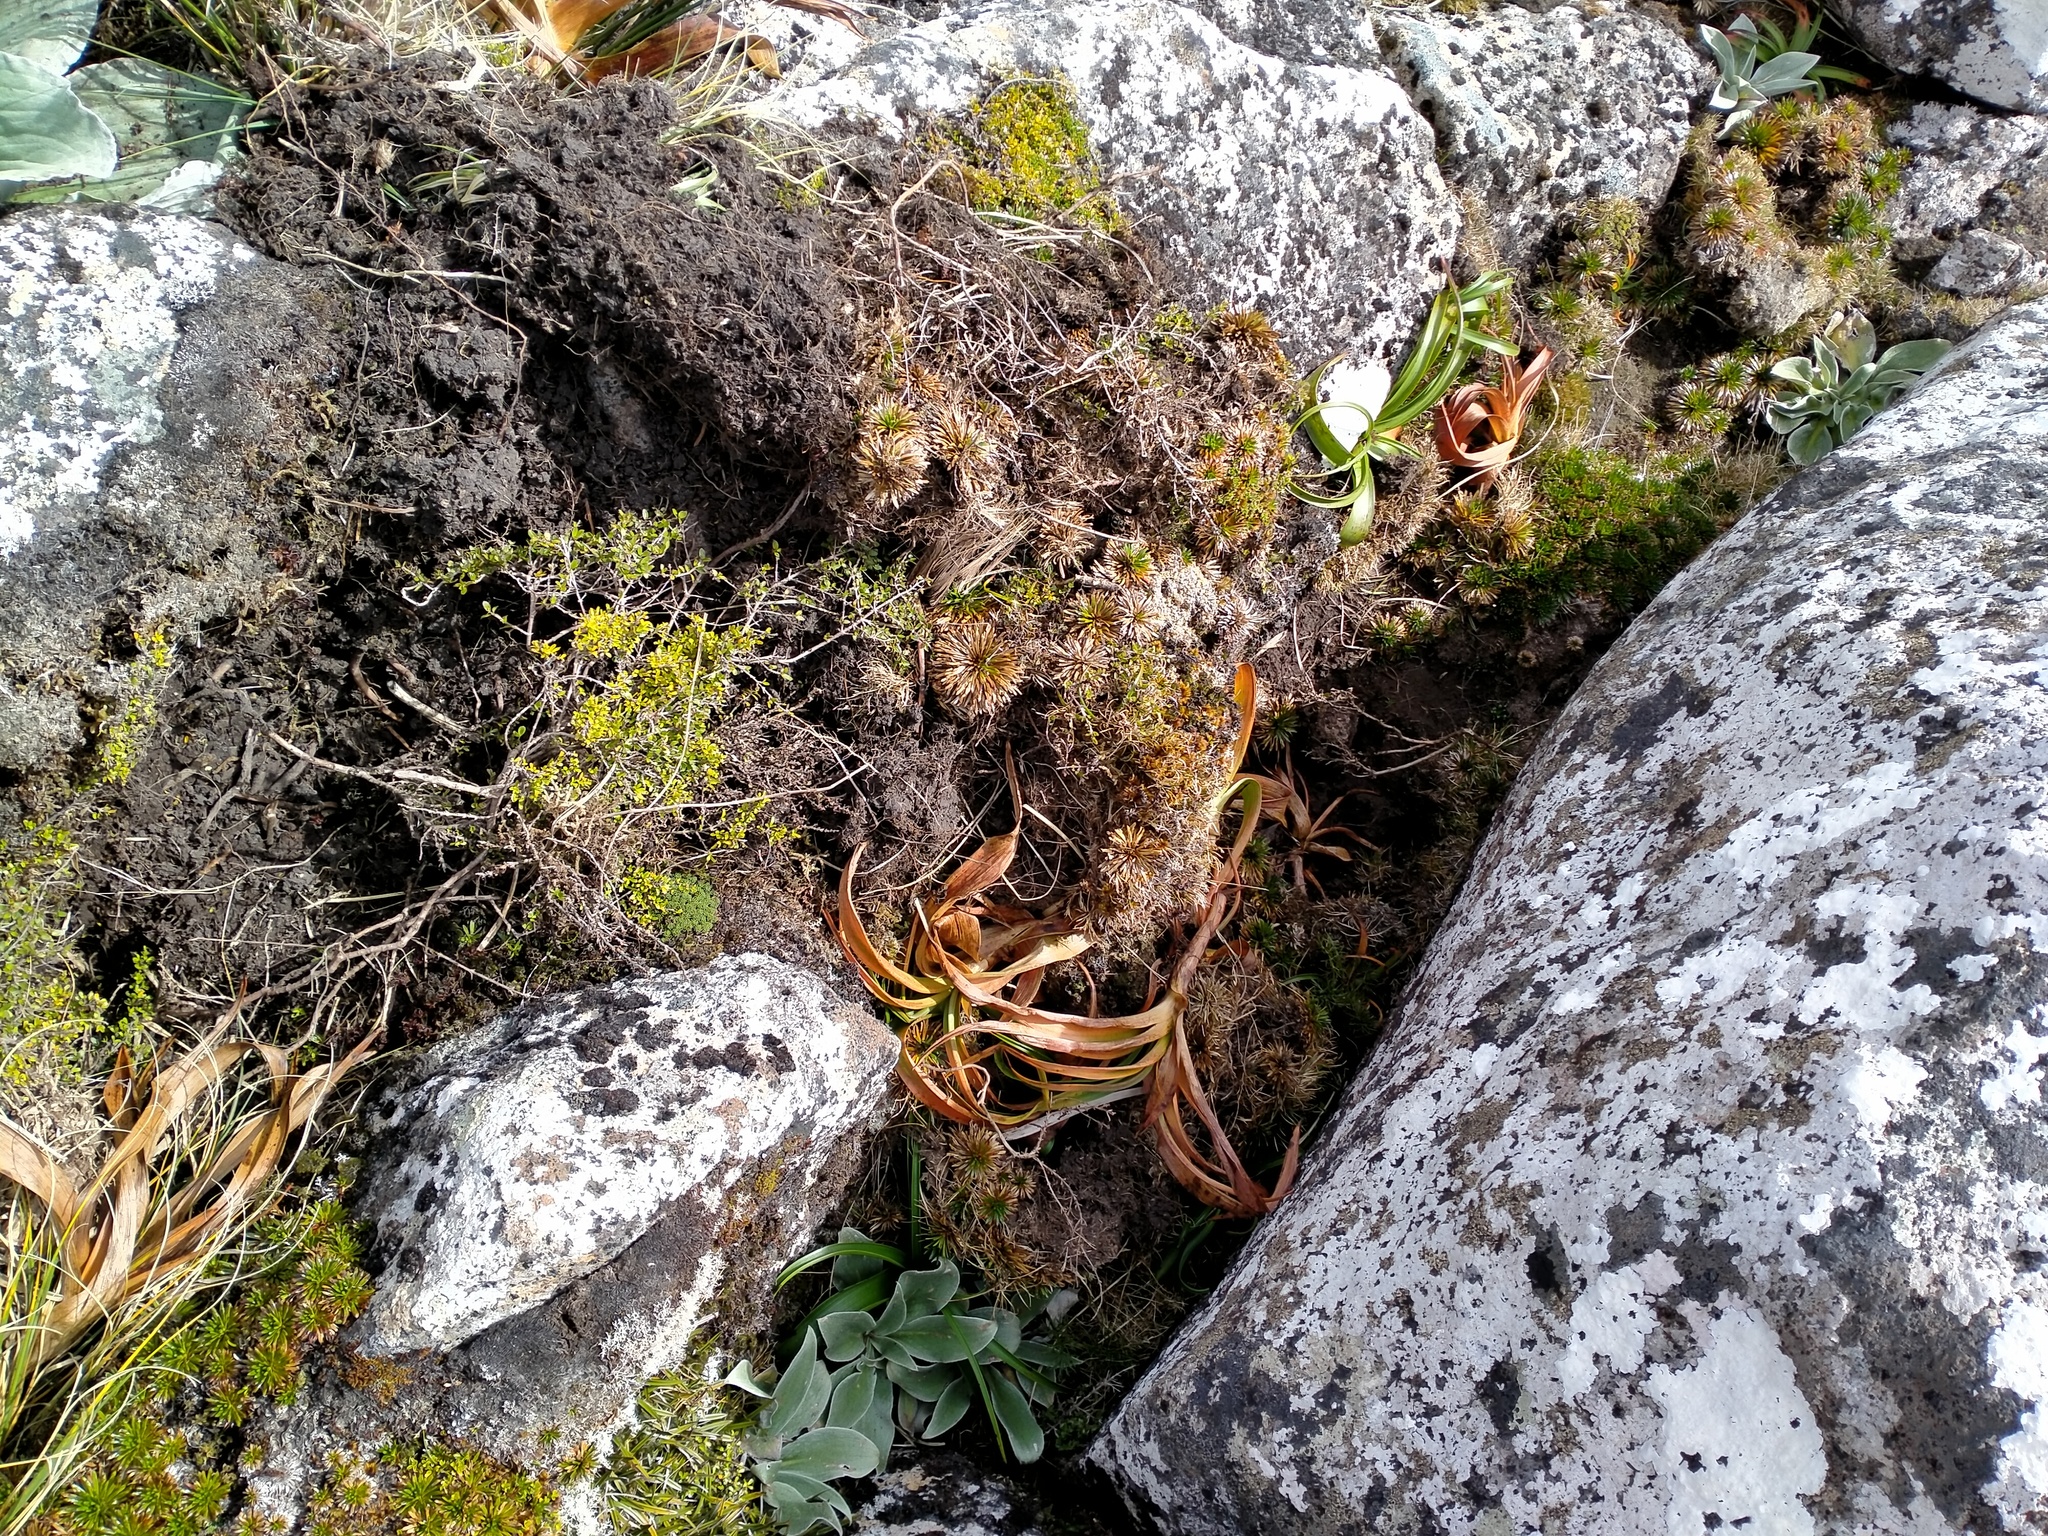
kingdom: Animalia
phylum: Chordata
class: Mammalia
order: Artiodactyla
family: Suidae
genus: Sus
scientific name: Sus scrofa
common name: Wild boar
